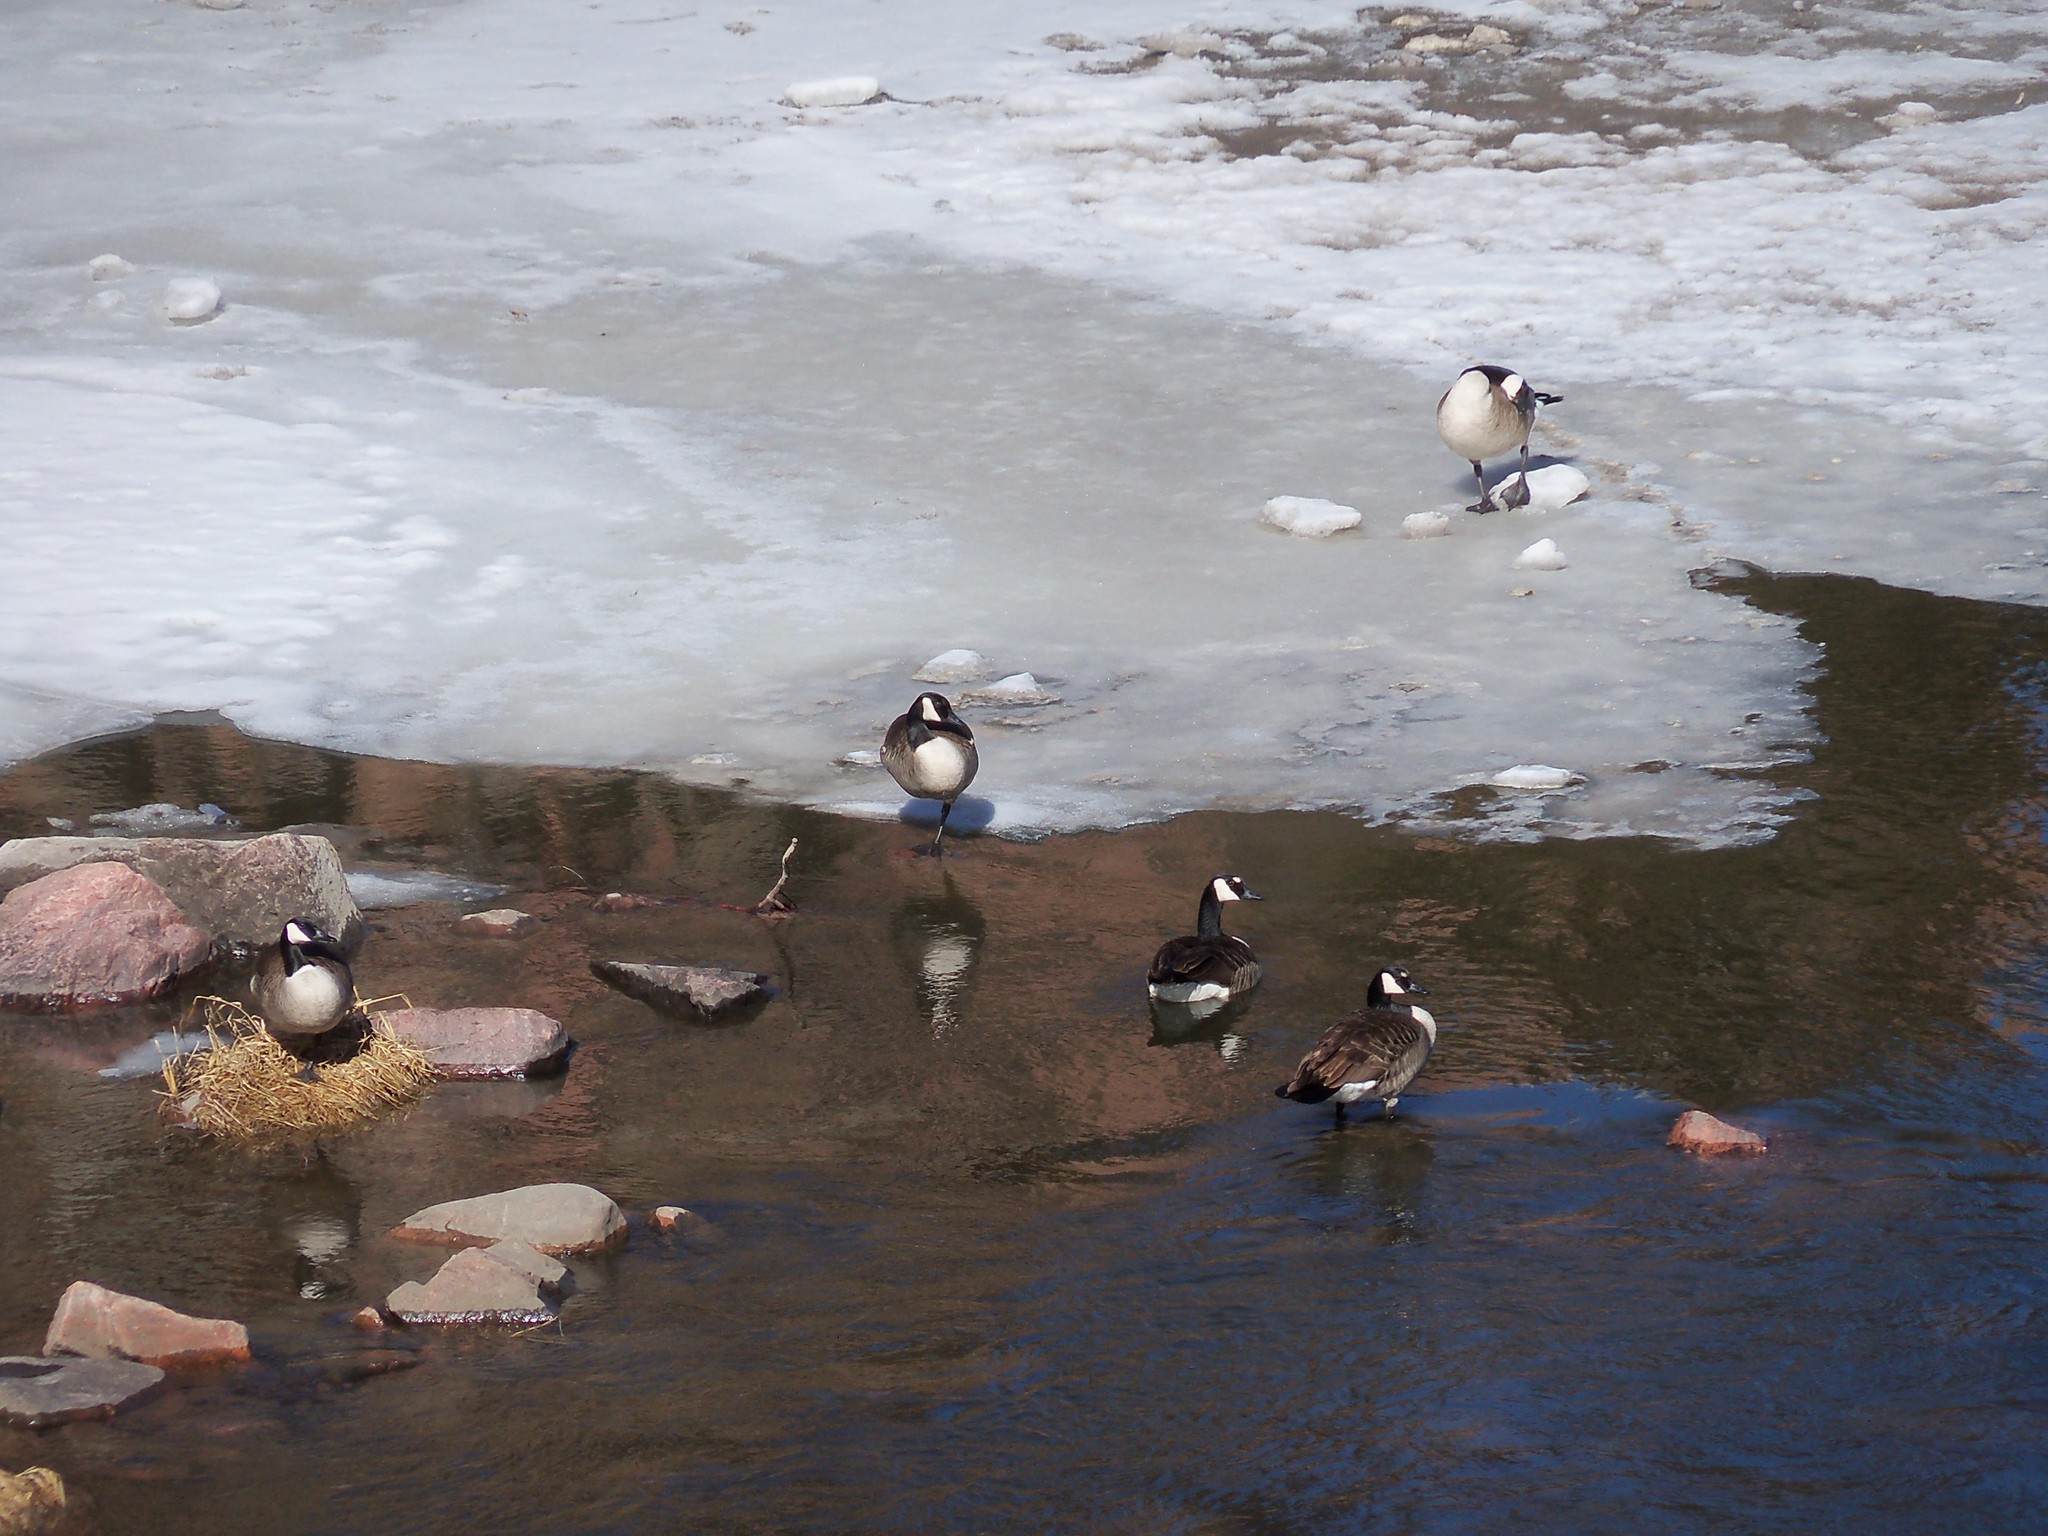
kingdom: Animalia
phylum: Chordata
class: Aves
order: Anseriformes
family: Anatidae
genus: Branta
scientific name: Branta canadensis
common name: Canada goose
